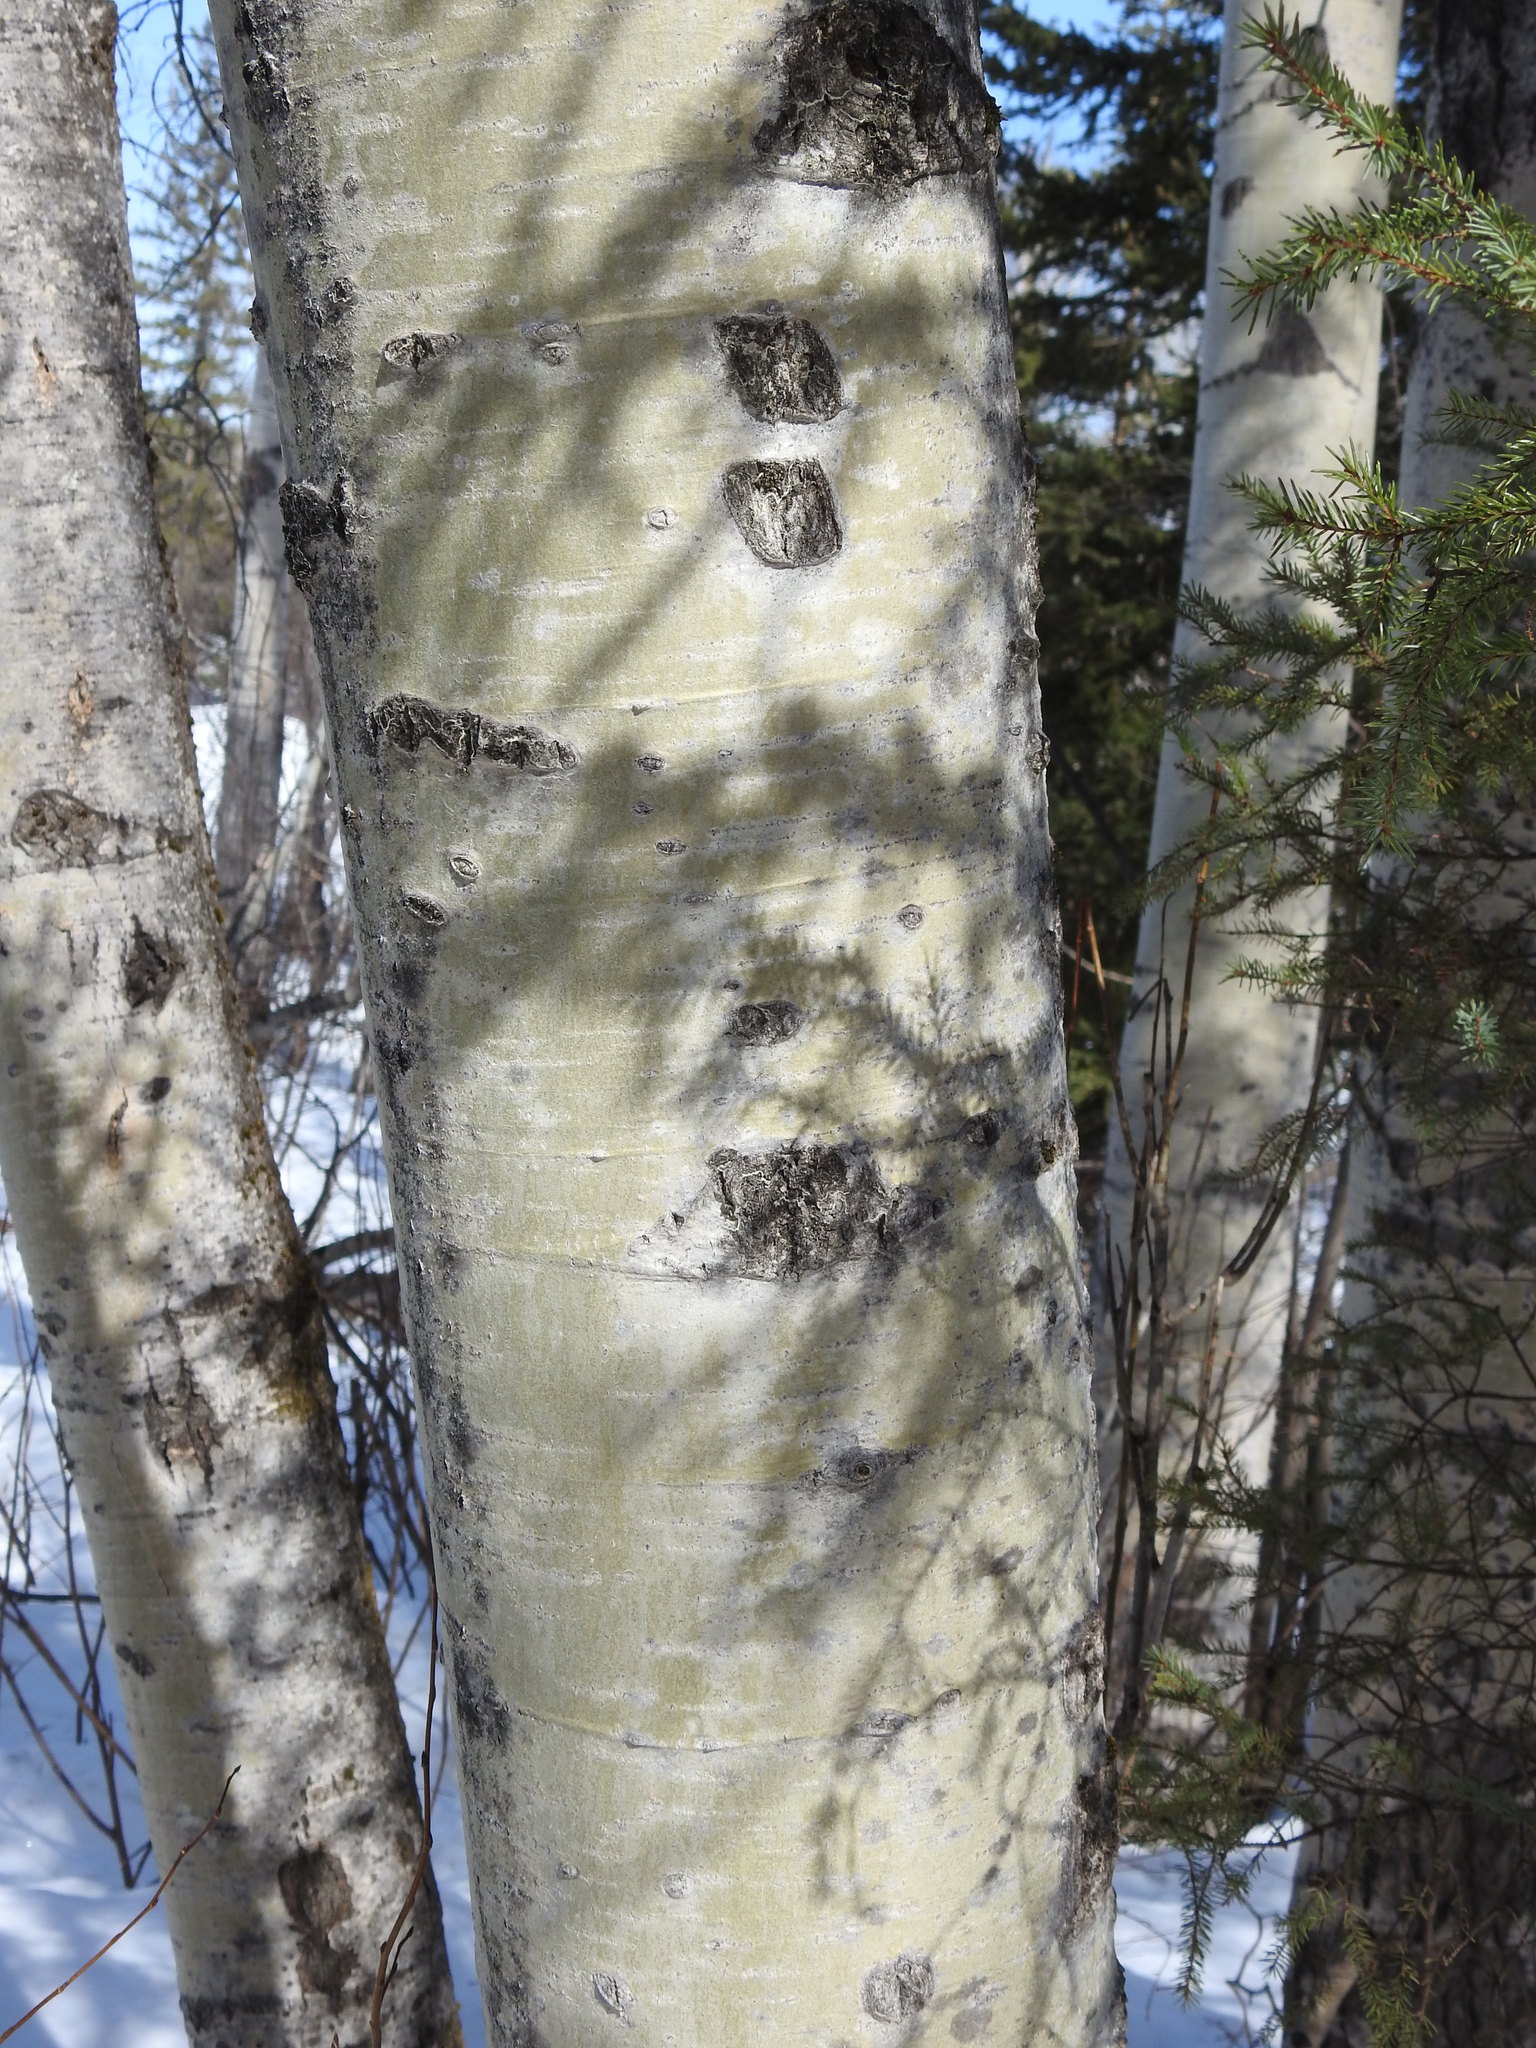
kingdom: Plantae
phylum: Tracheophyta
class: Magnoliopsida
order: Malpighiales
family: Salicaceae
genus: Populus
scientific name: Populus tremuloides
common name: Quaking aspen
